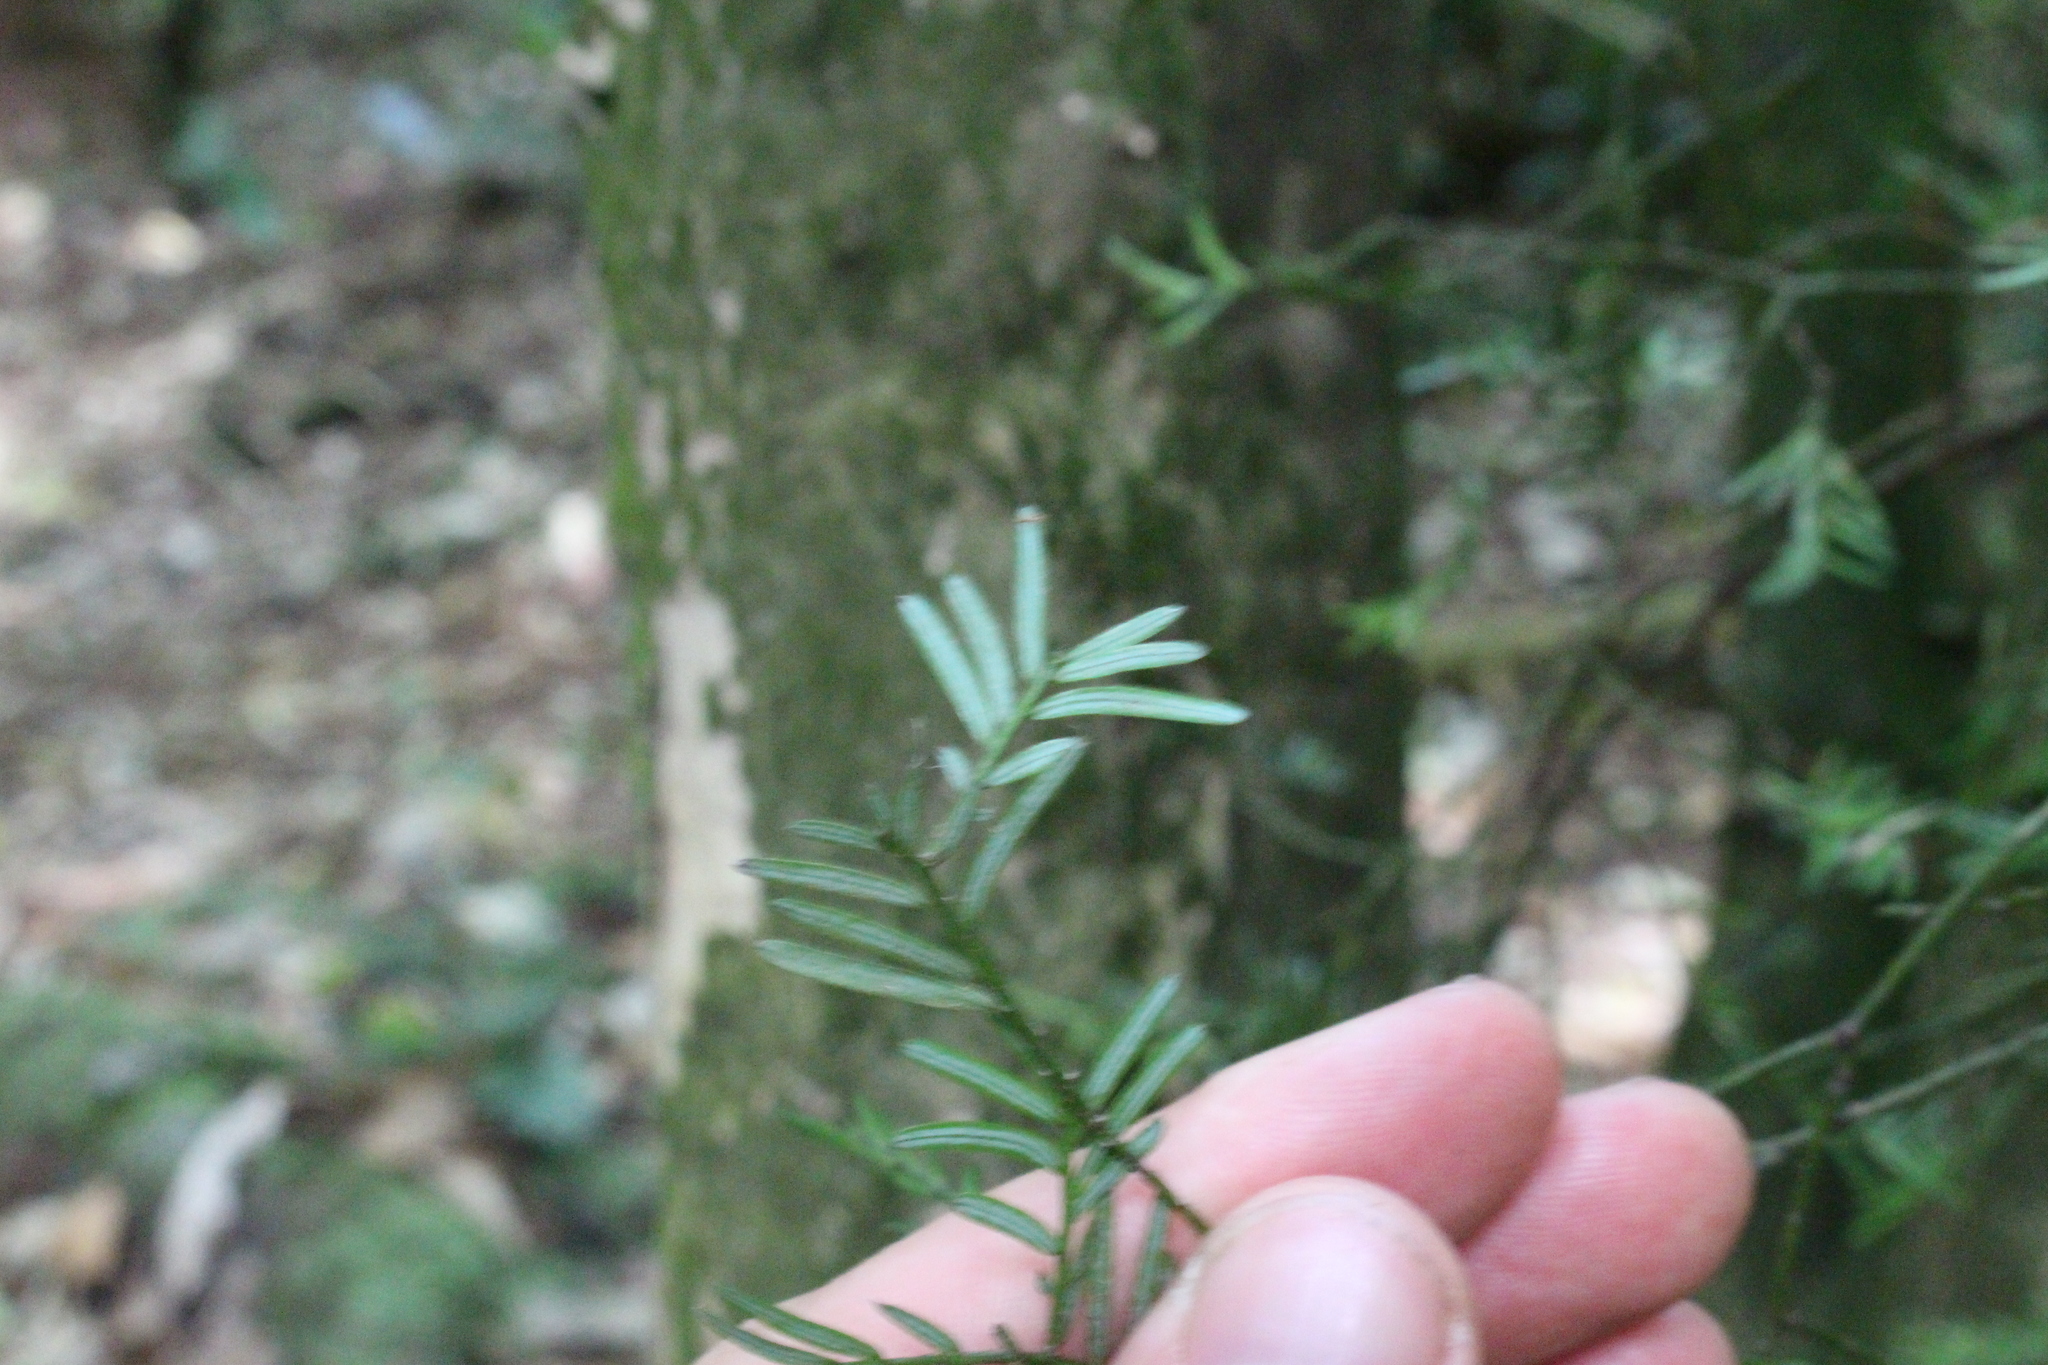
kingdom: Plantae
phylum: Tracheophyta
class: Pinopsida
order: Pinales
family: Podocarpaceae
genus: Prumnopitys
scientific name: Prumnopitys taxifolia
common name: Matai
